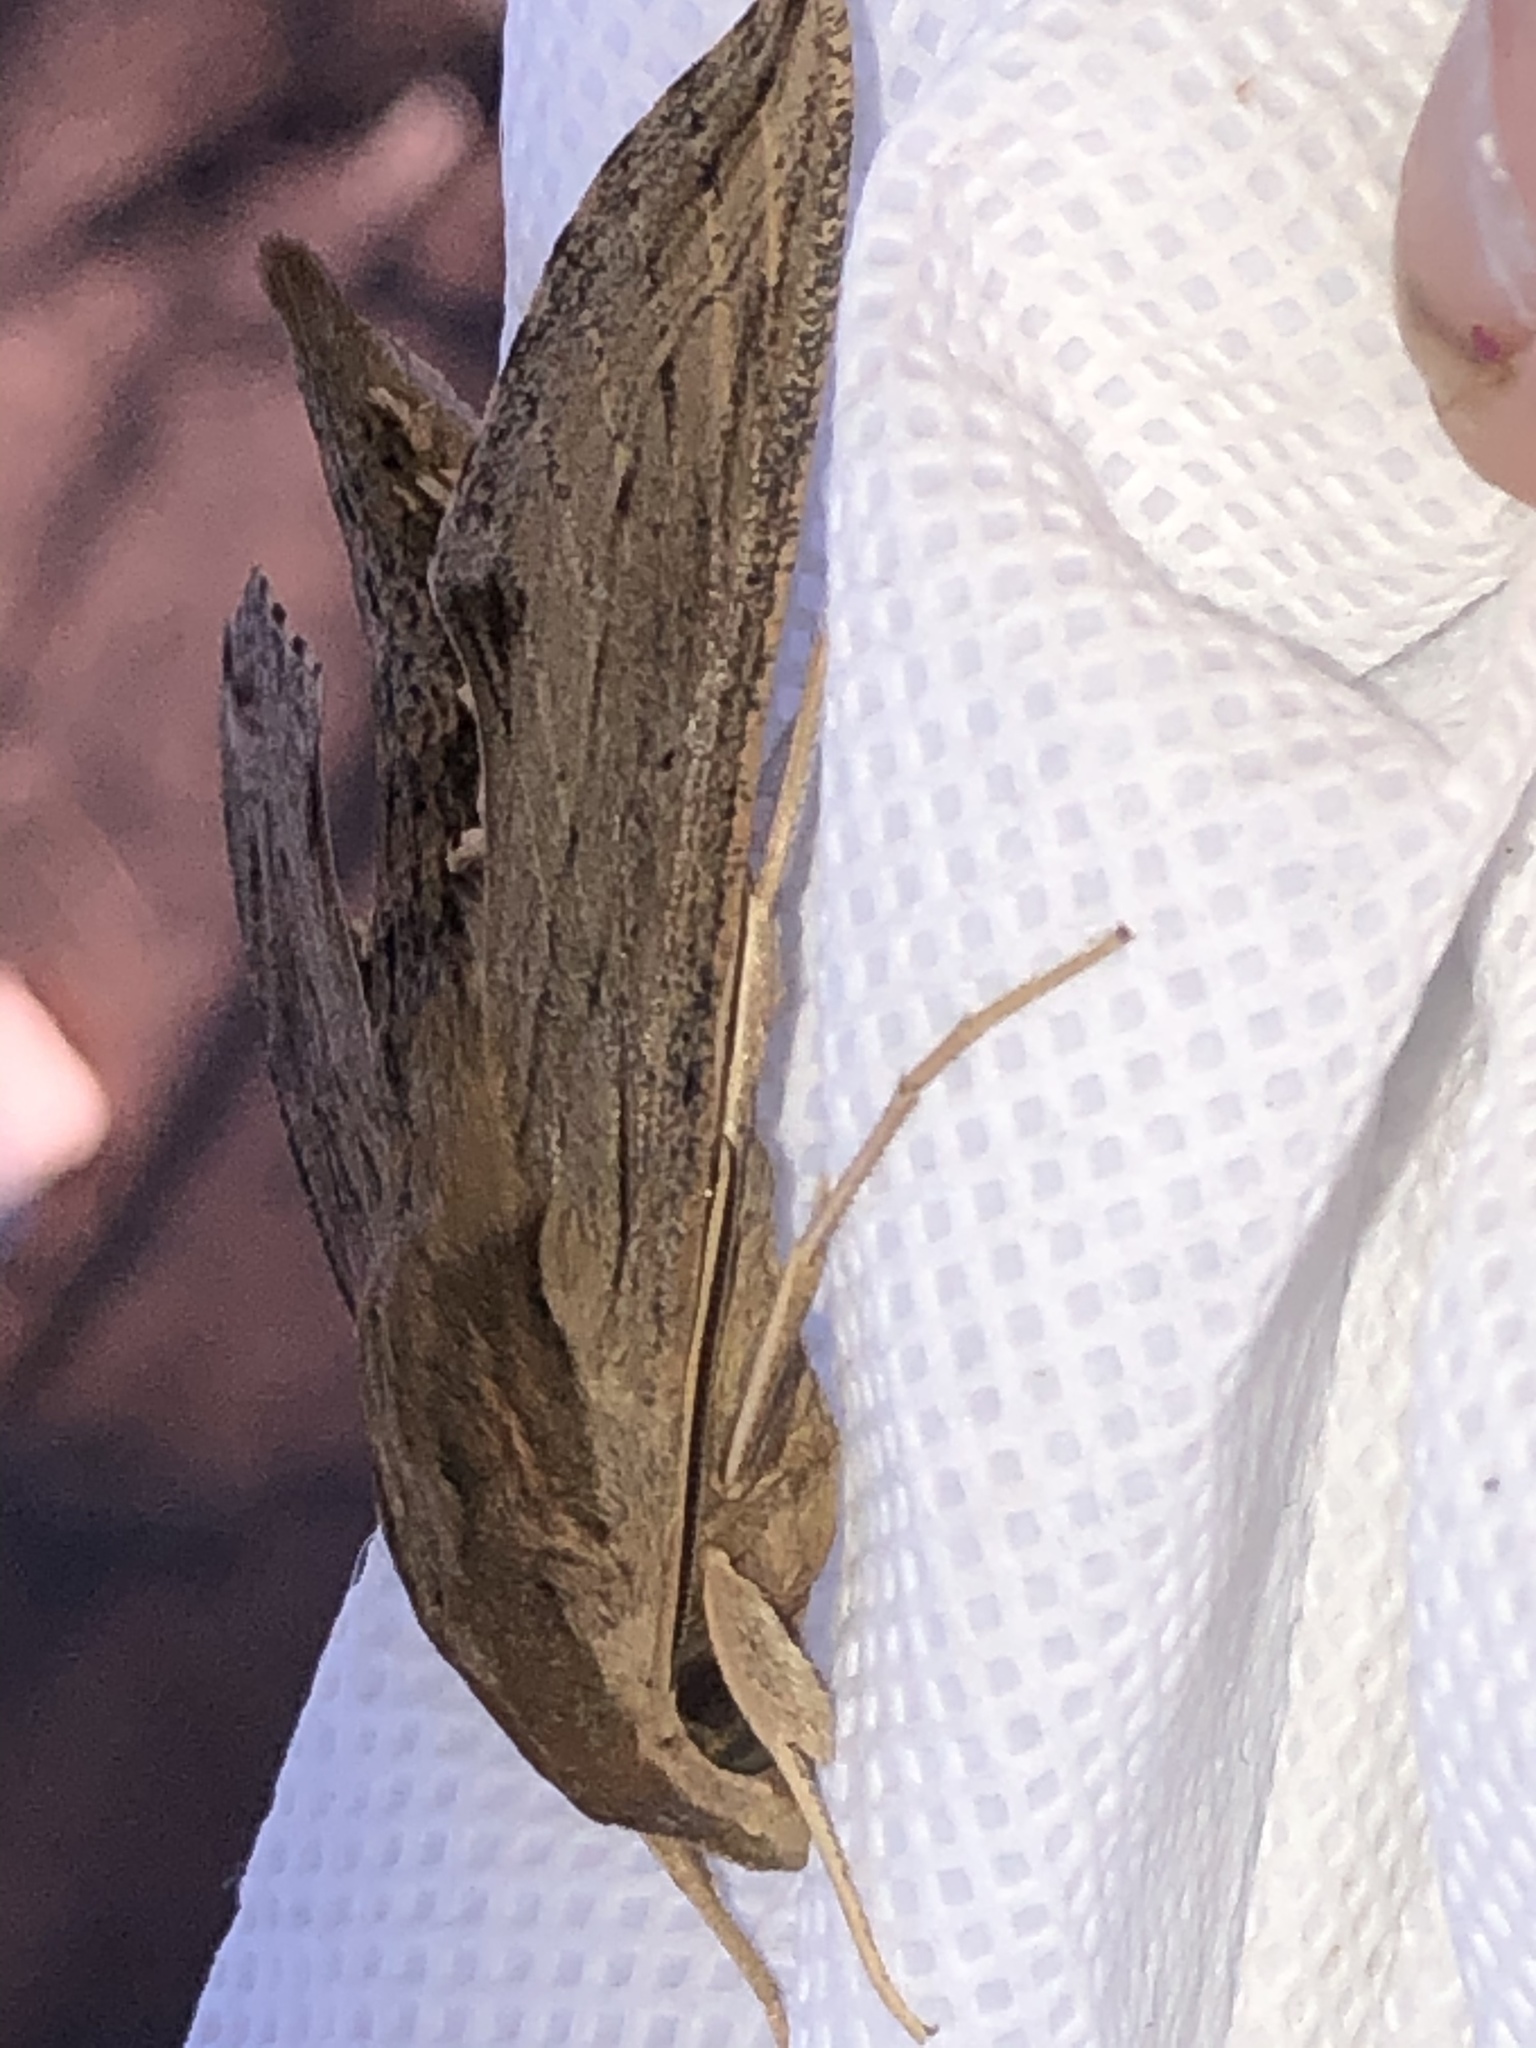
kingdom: Animalia
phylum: Arthropoda
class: Insecta
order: Lepidoptera
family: Sphingidae
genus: Hippotion
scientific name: Hippotion velox
